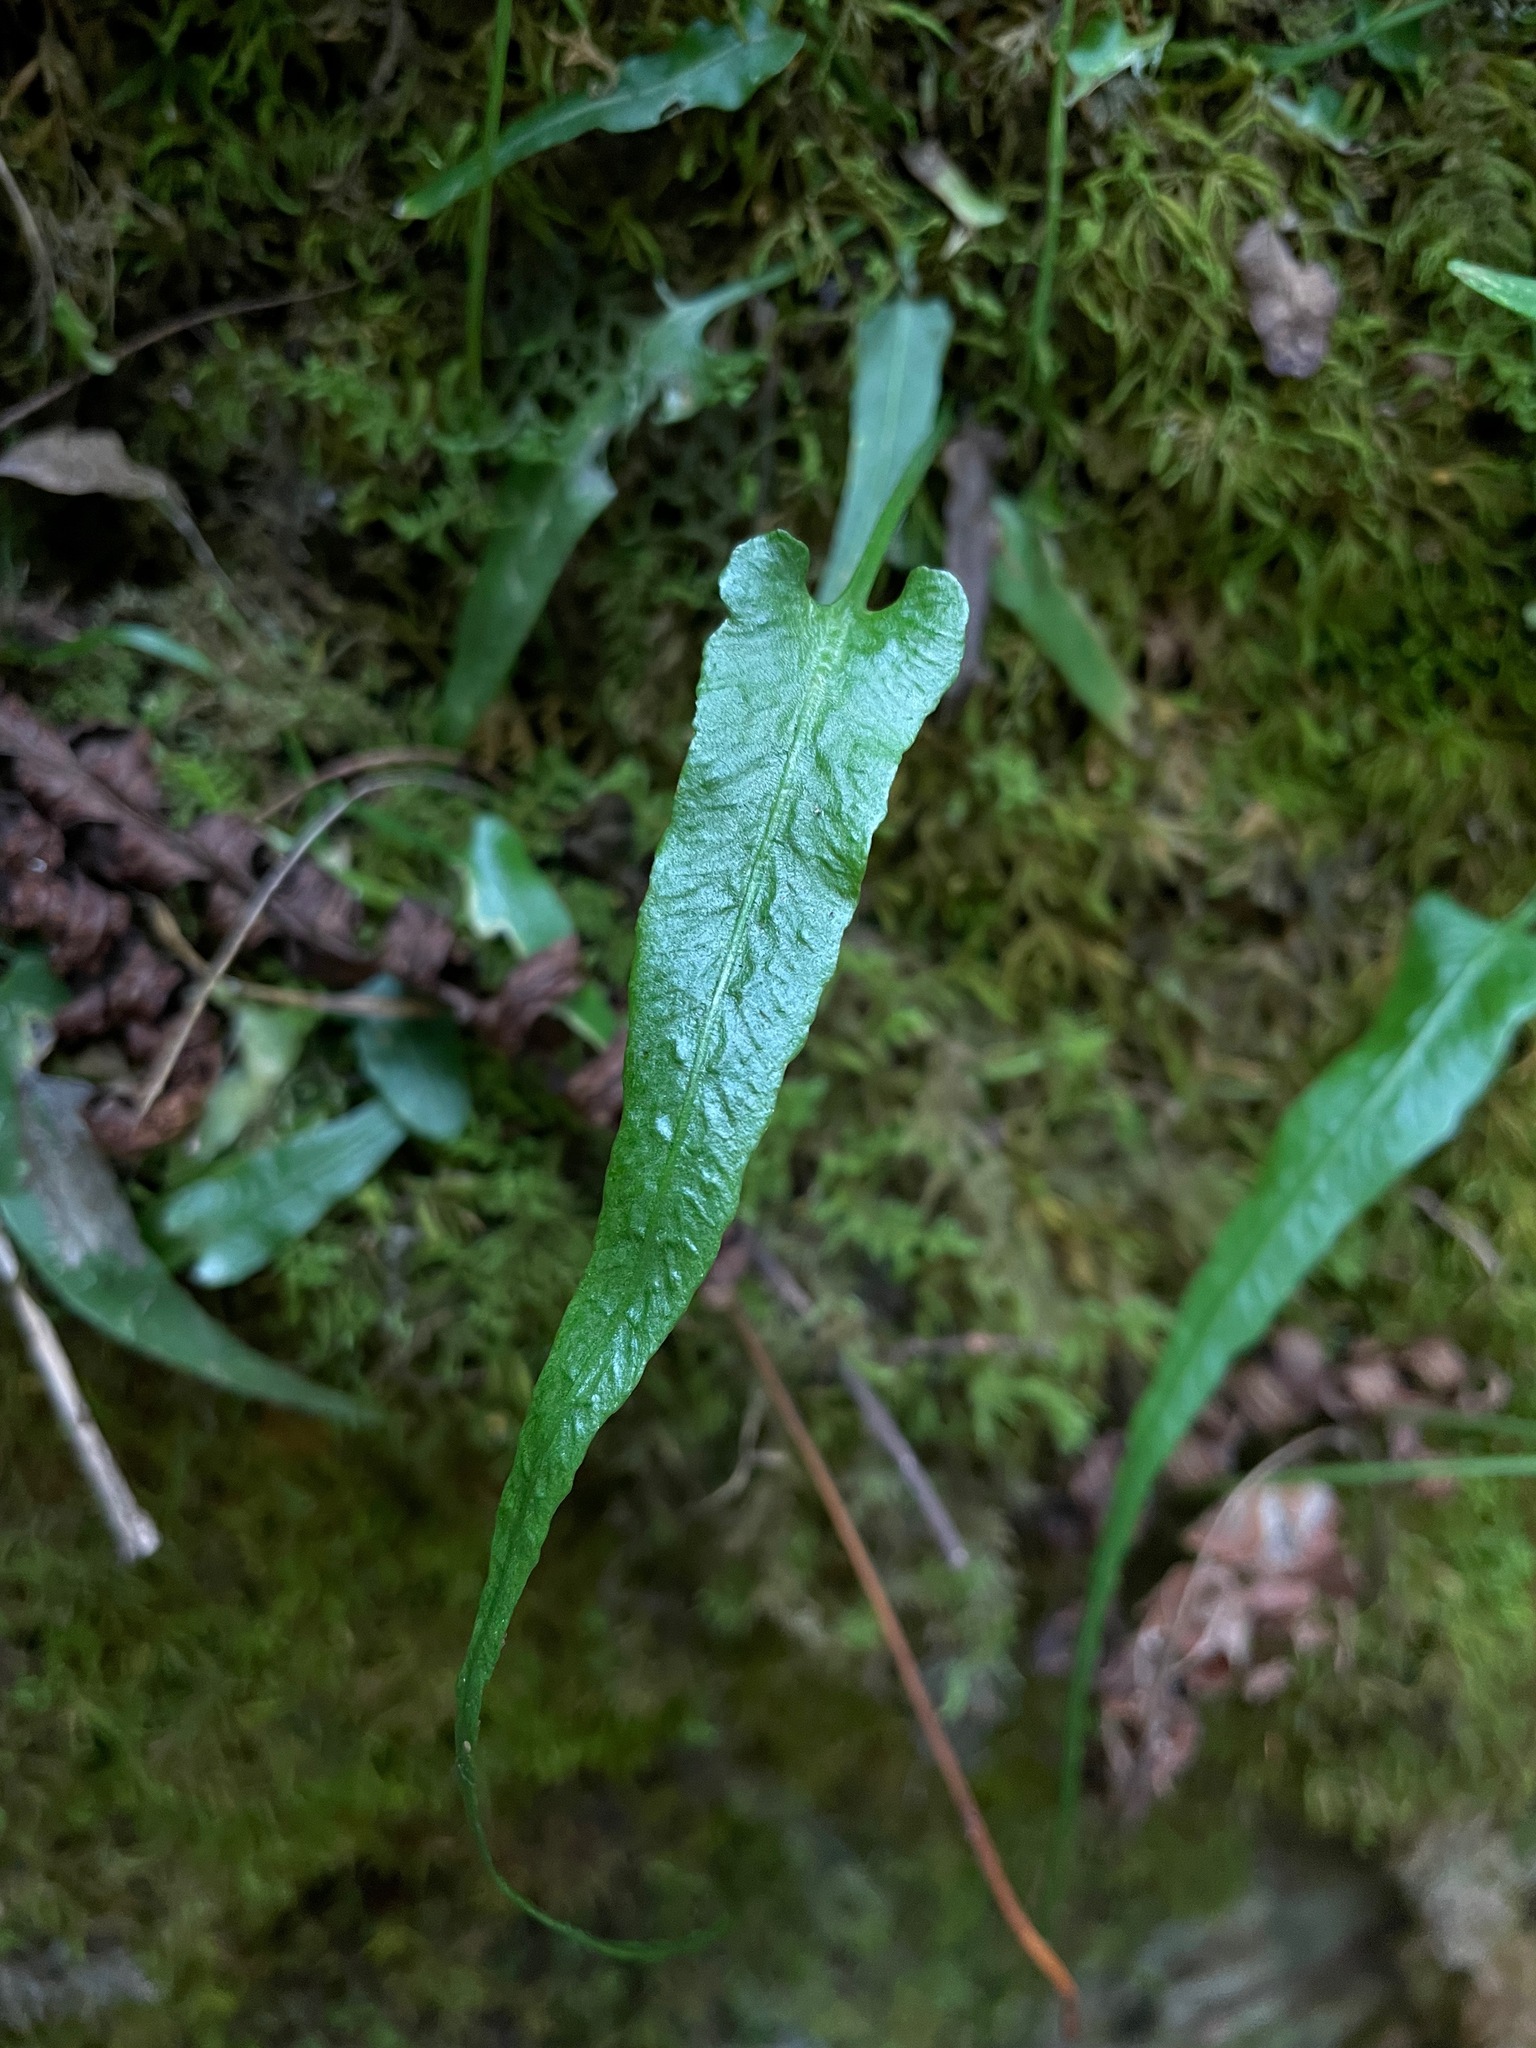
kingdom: Plantae
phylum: Tracheophyta
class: Polypodiopsida
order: Polypodiales
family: Aspleniaceae
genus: Asplenium
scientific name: Asplenium rhizophyllum
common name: Walking fern
